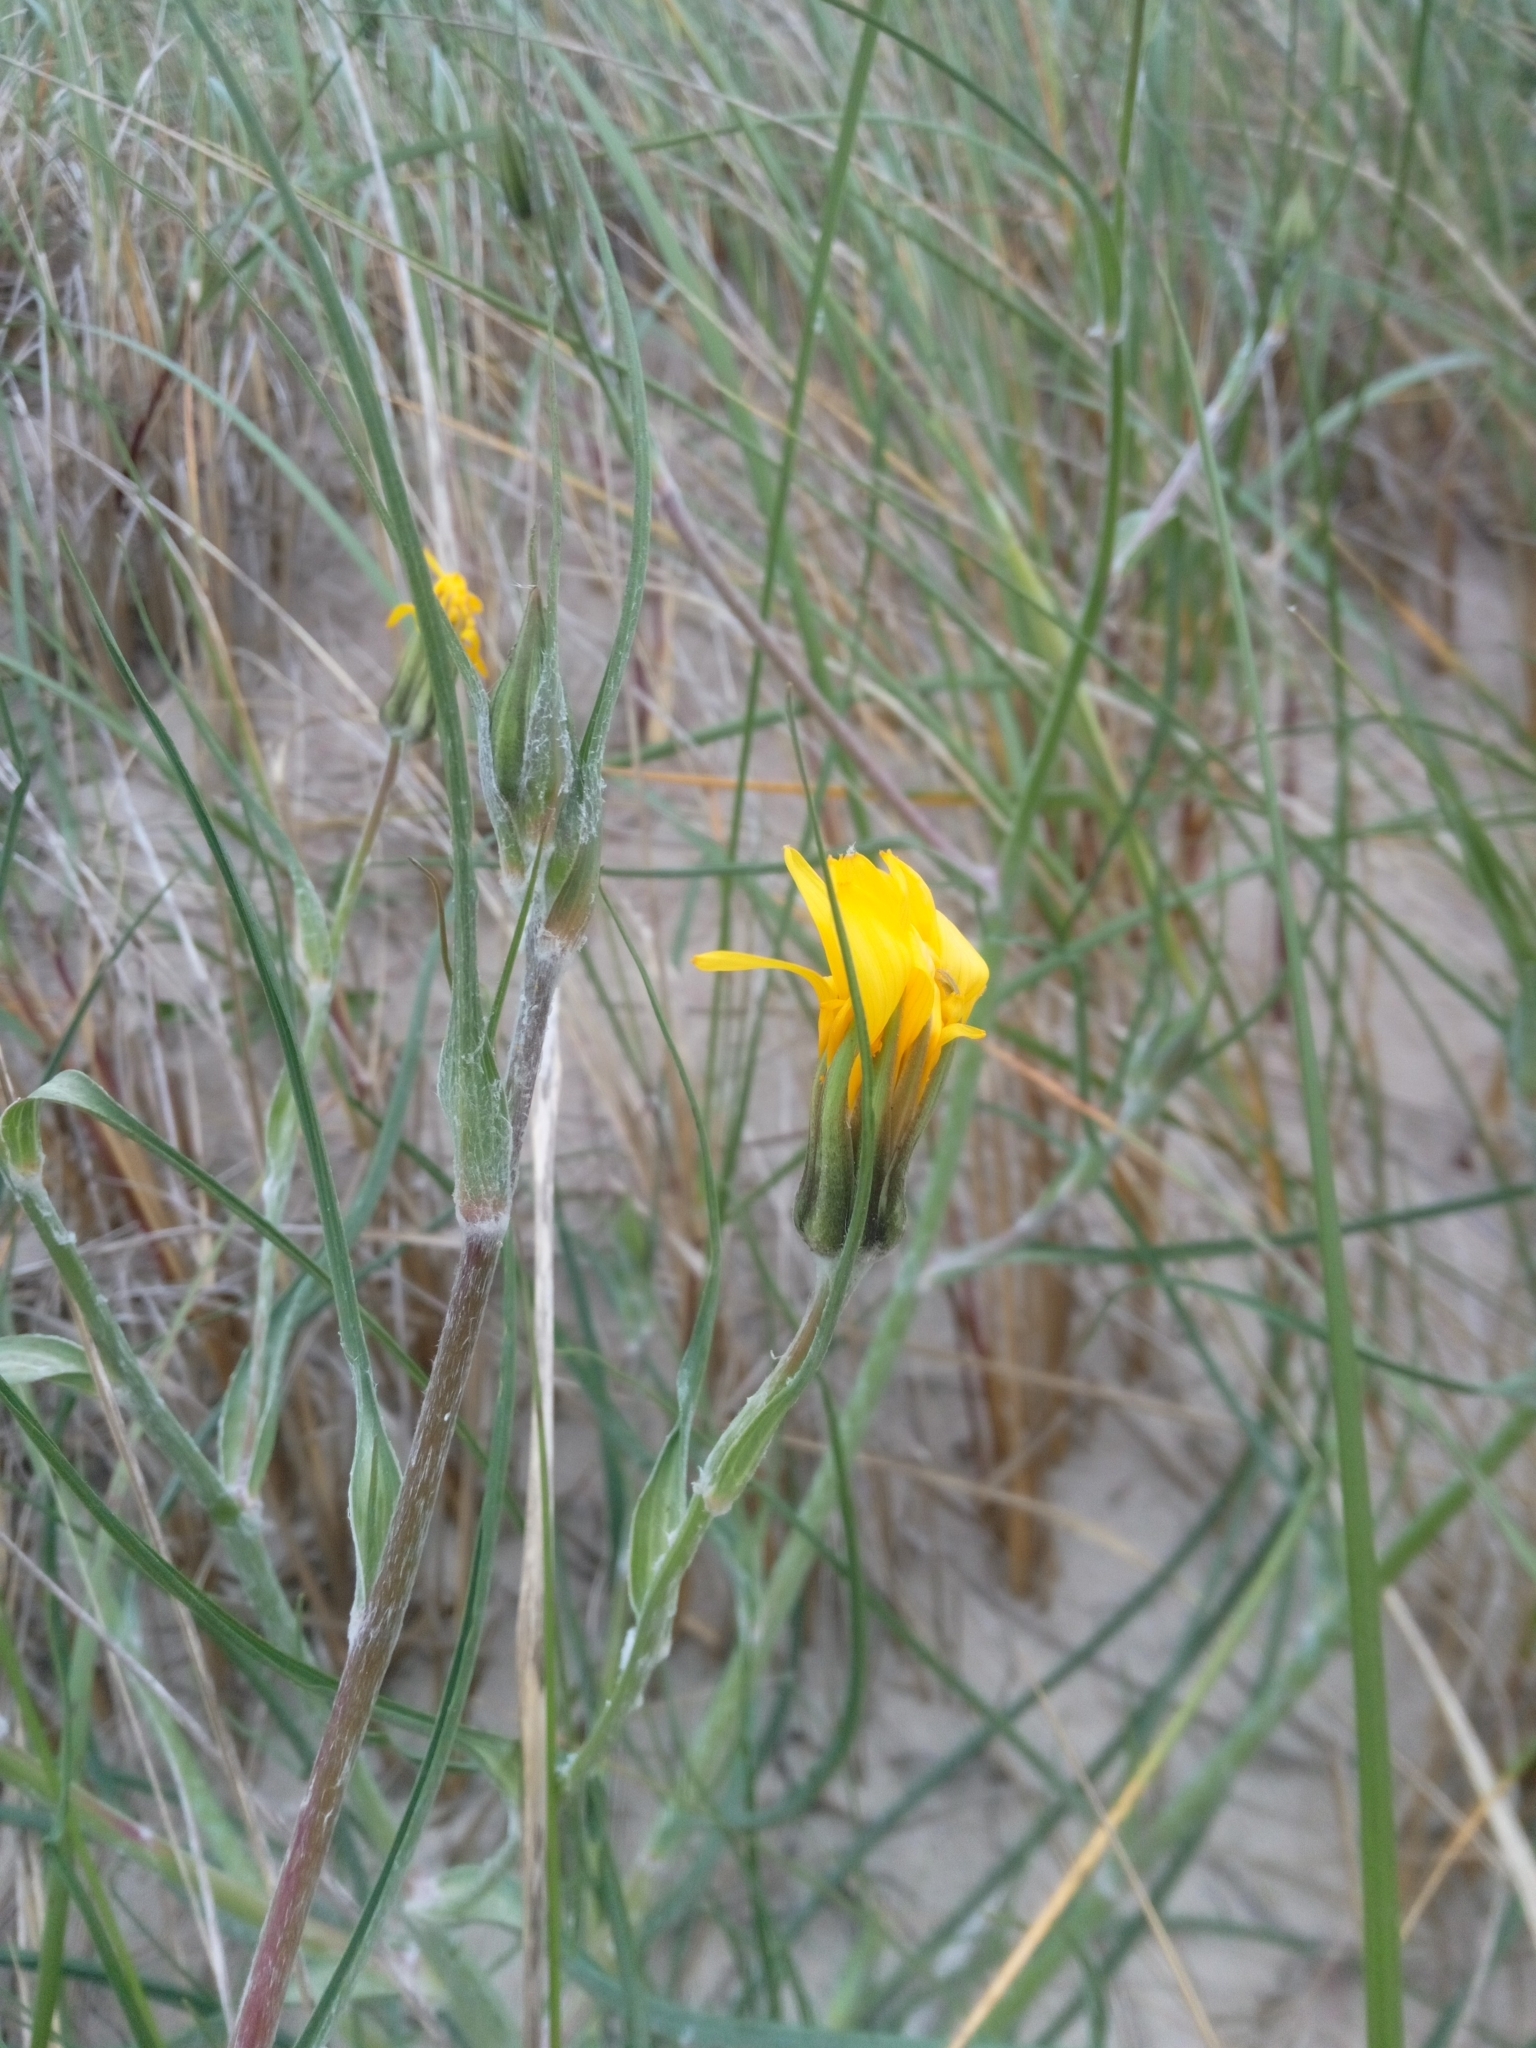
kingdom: Plantae
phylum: Tracheophyta
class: Magnoliopsida
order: Asterales
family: Asteraceae
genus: Tragopogon
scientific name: Tragopogon heterospermus
